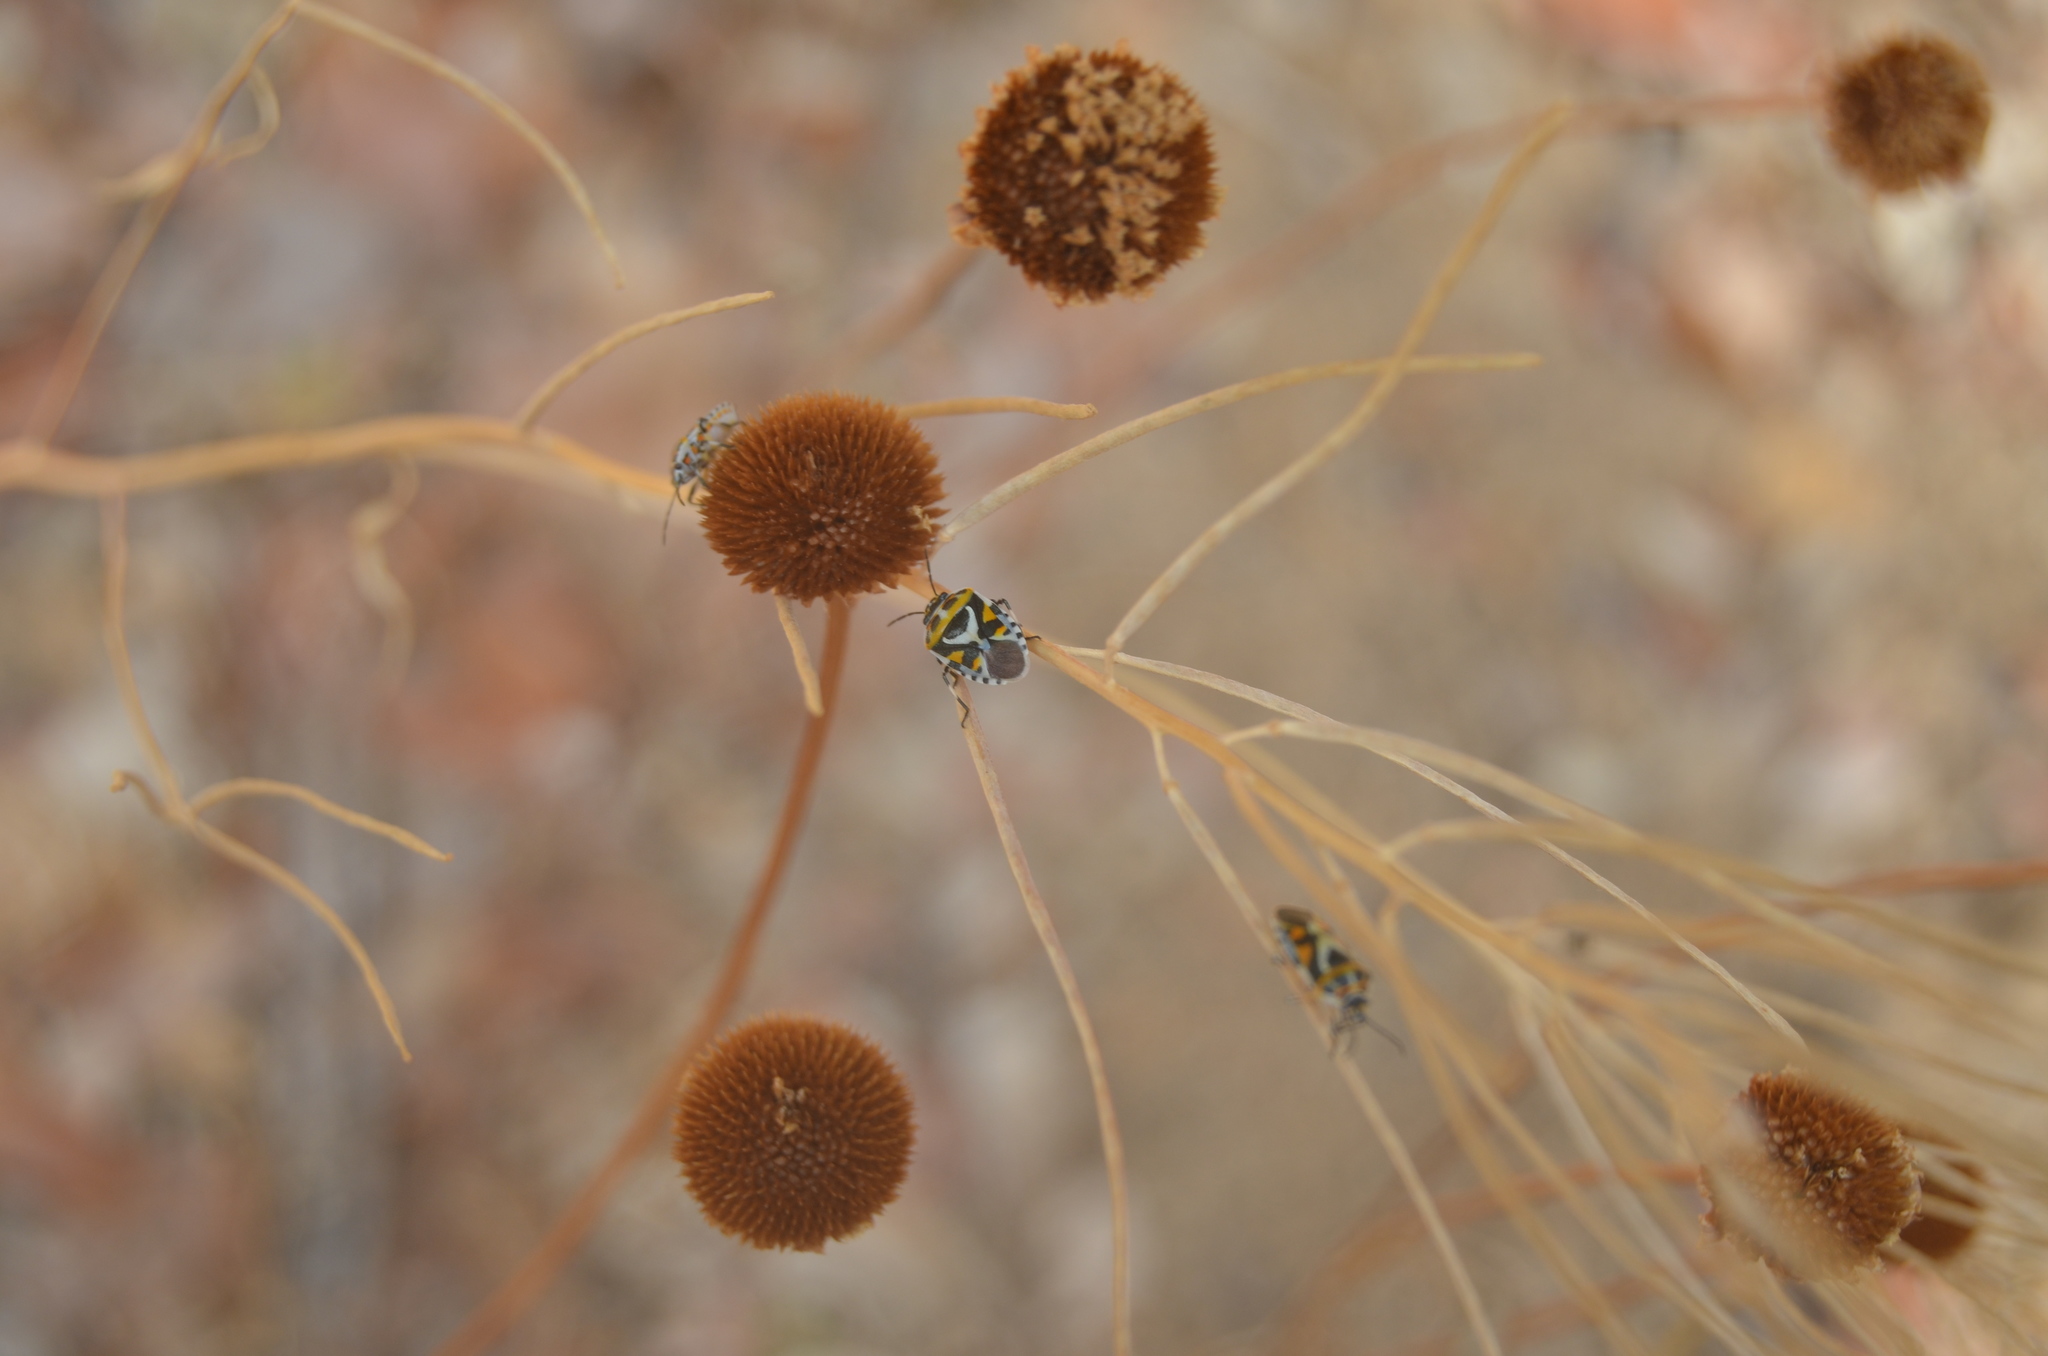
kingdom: Animalia
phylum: Arthropoda
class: Insecta
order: Hemiptera
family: Pentatomidae
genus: Eurydema
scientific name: Eurydema ornata
